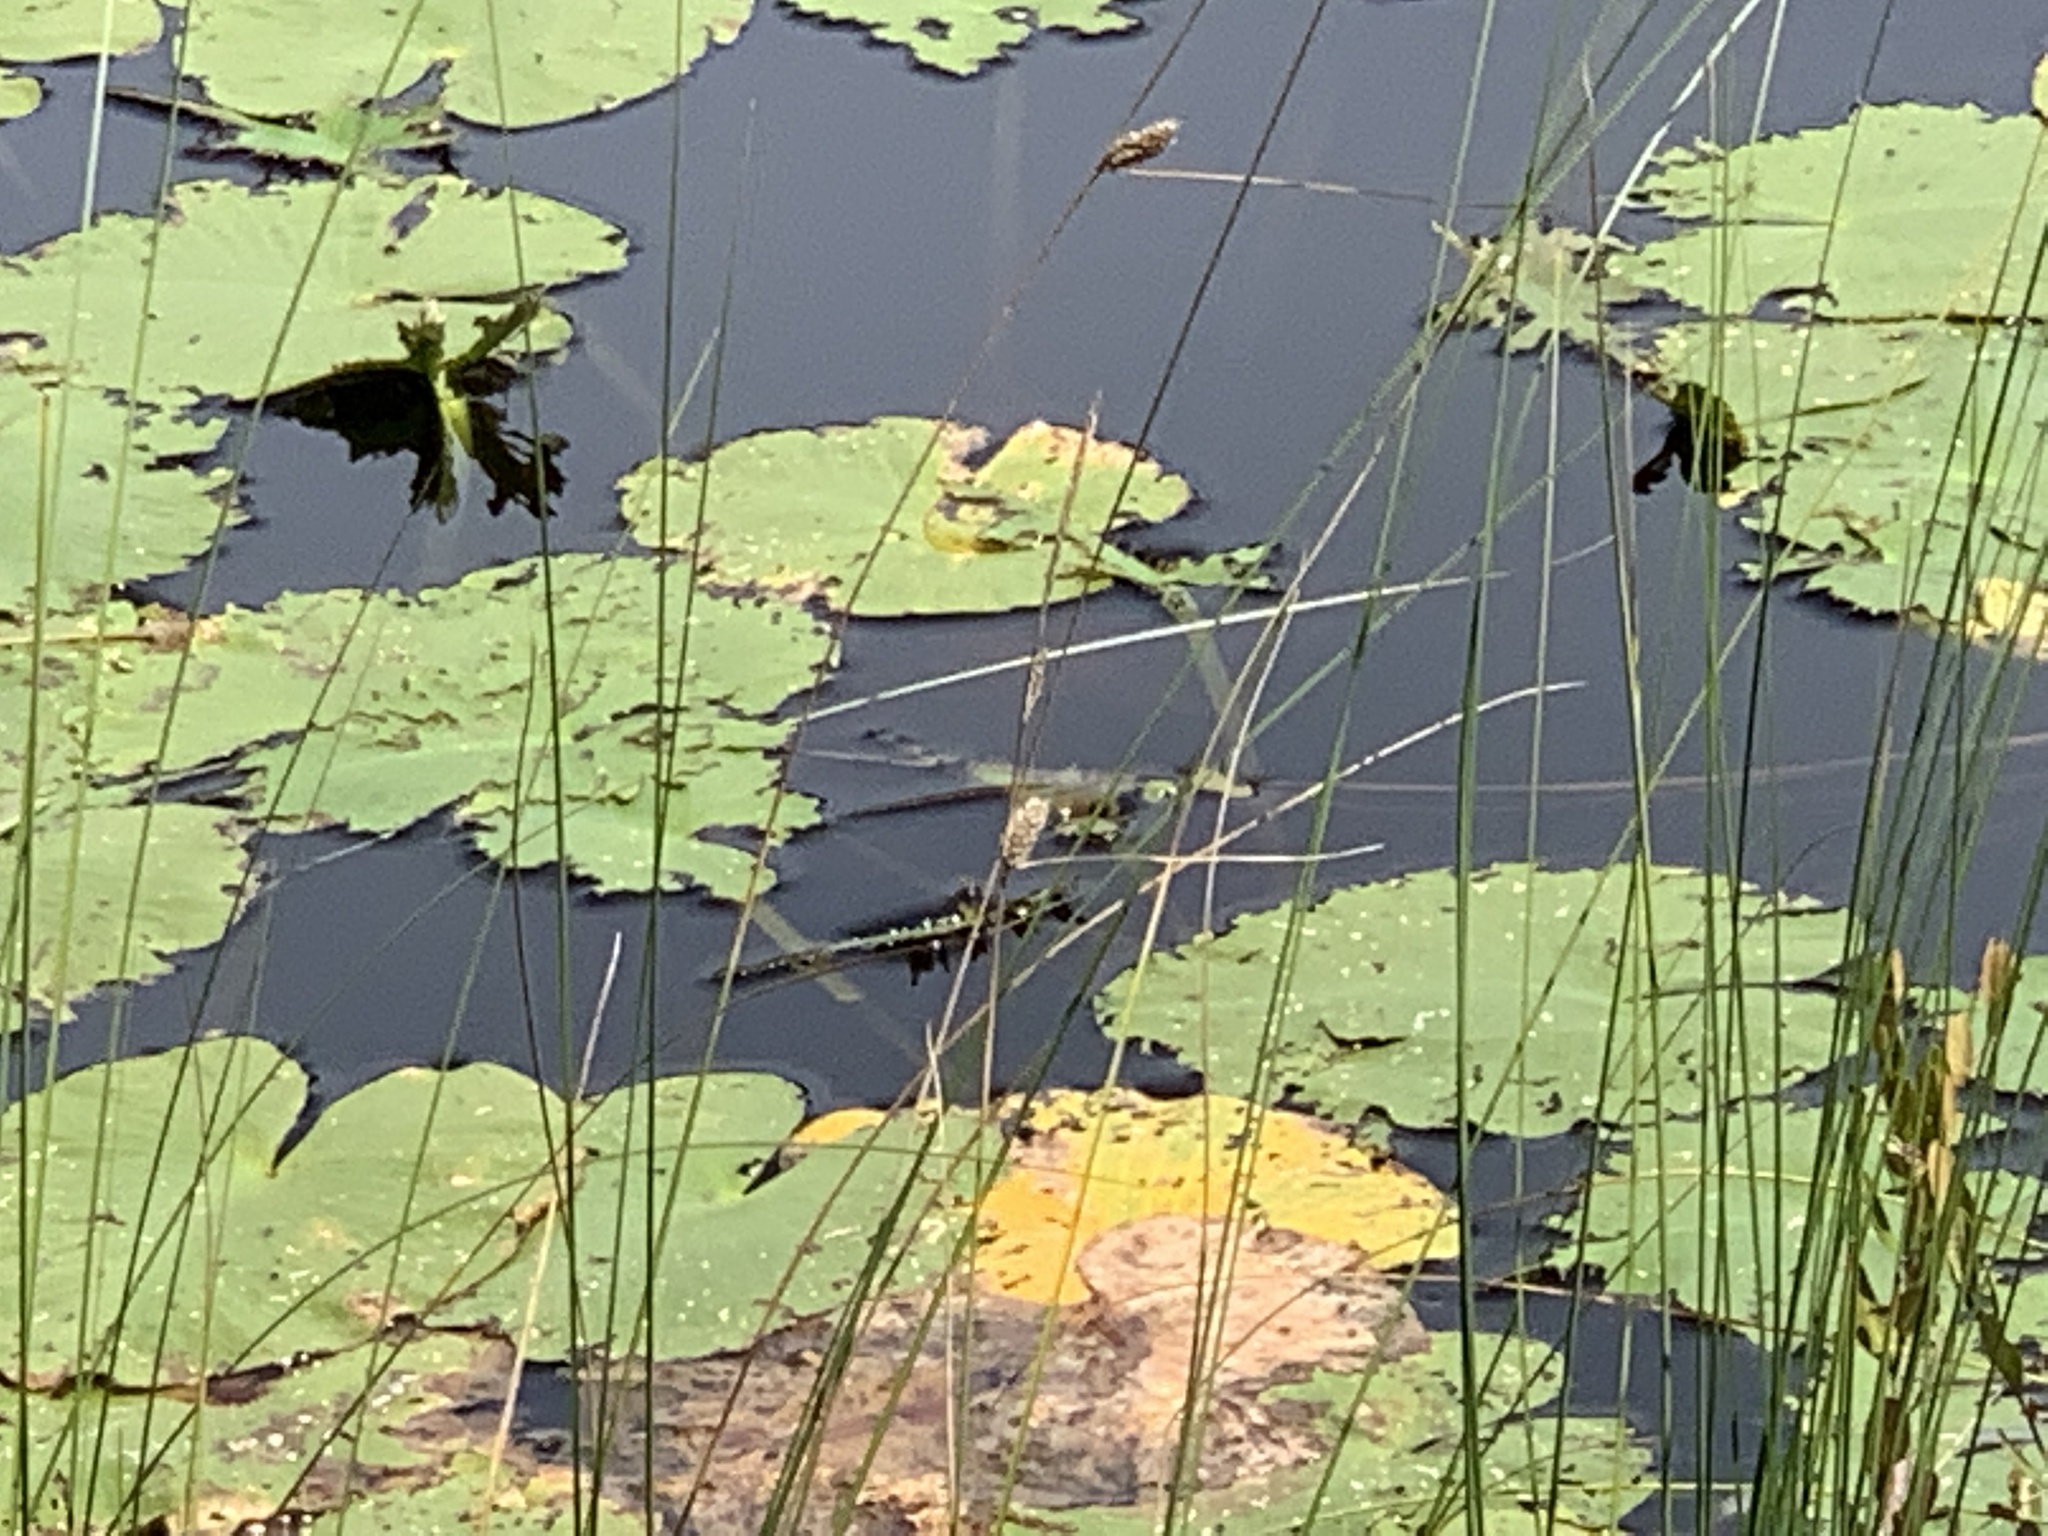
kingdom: Plantae
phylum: Tracheophyta
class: Liliopsida
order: Poales
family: Cyperaceae
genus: Carex
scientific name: Carex lasiocarpa
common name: Slender sedge
